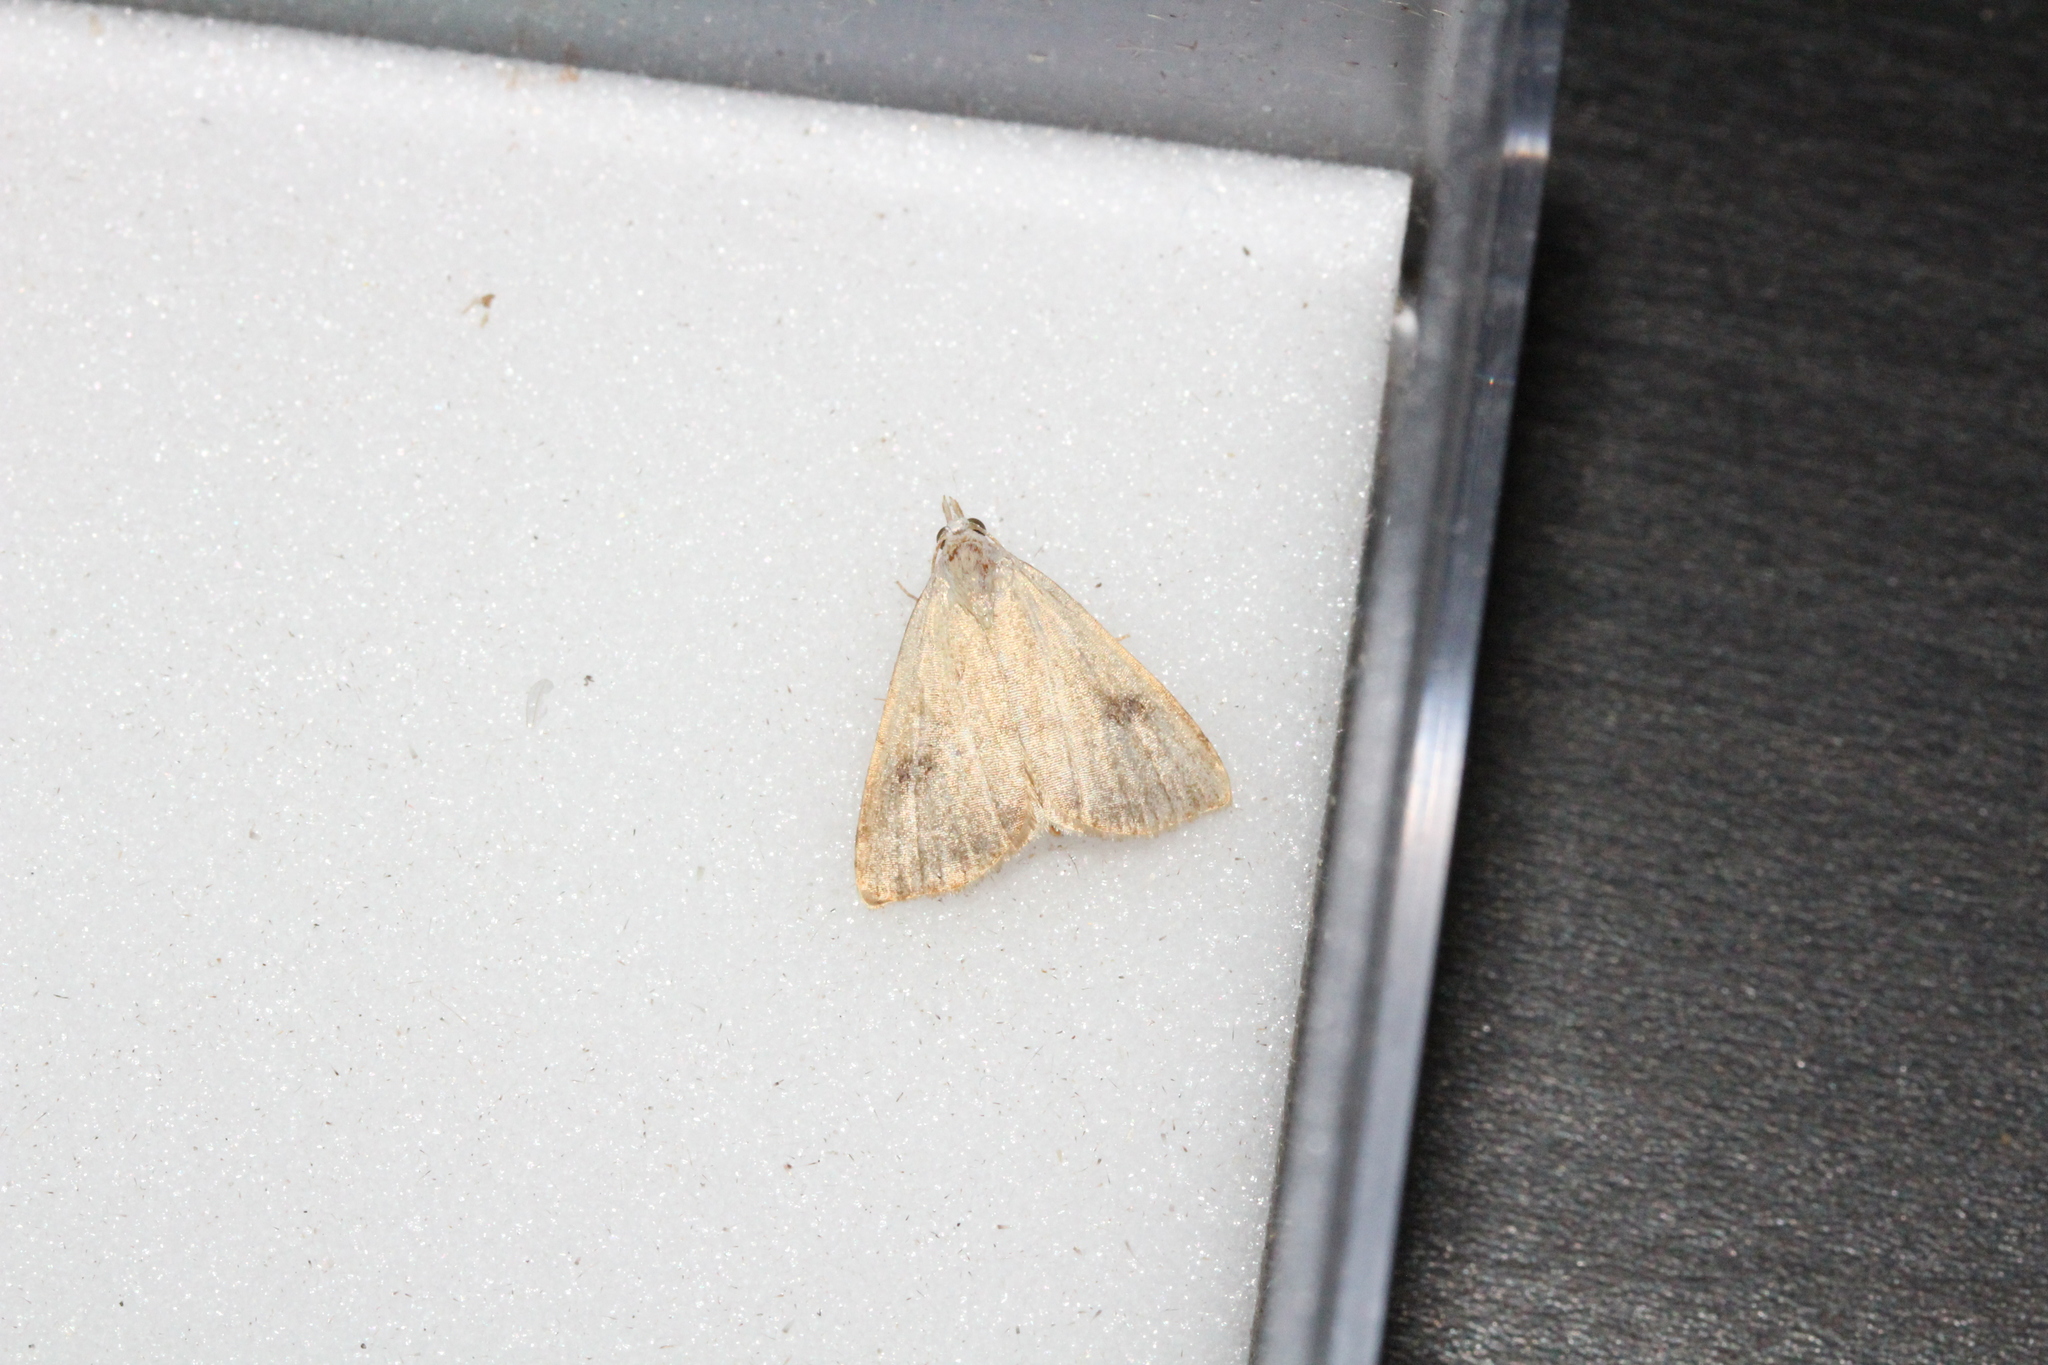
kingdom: Animalia
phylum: Arthropoda
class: Insecta
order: Lepidoptera
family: Erebidae
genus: Rivula
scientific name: Rivula sericealis
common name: Straw dot
